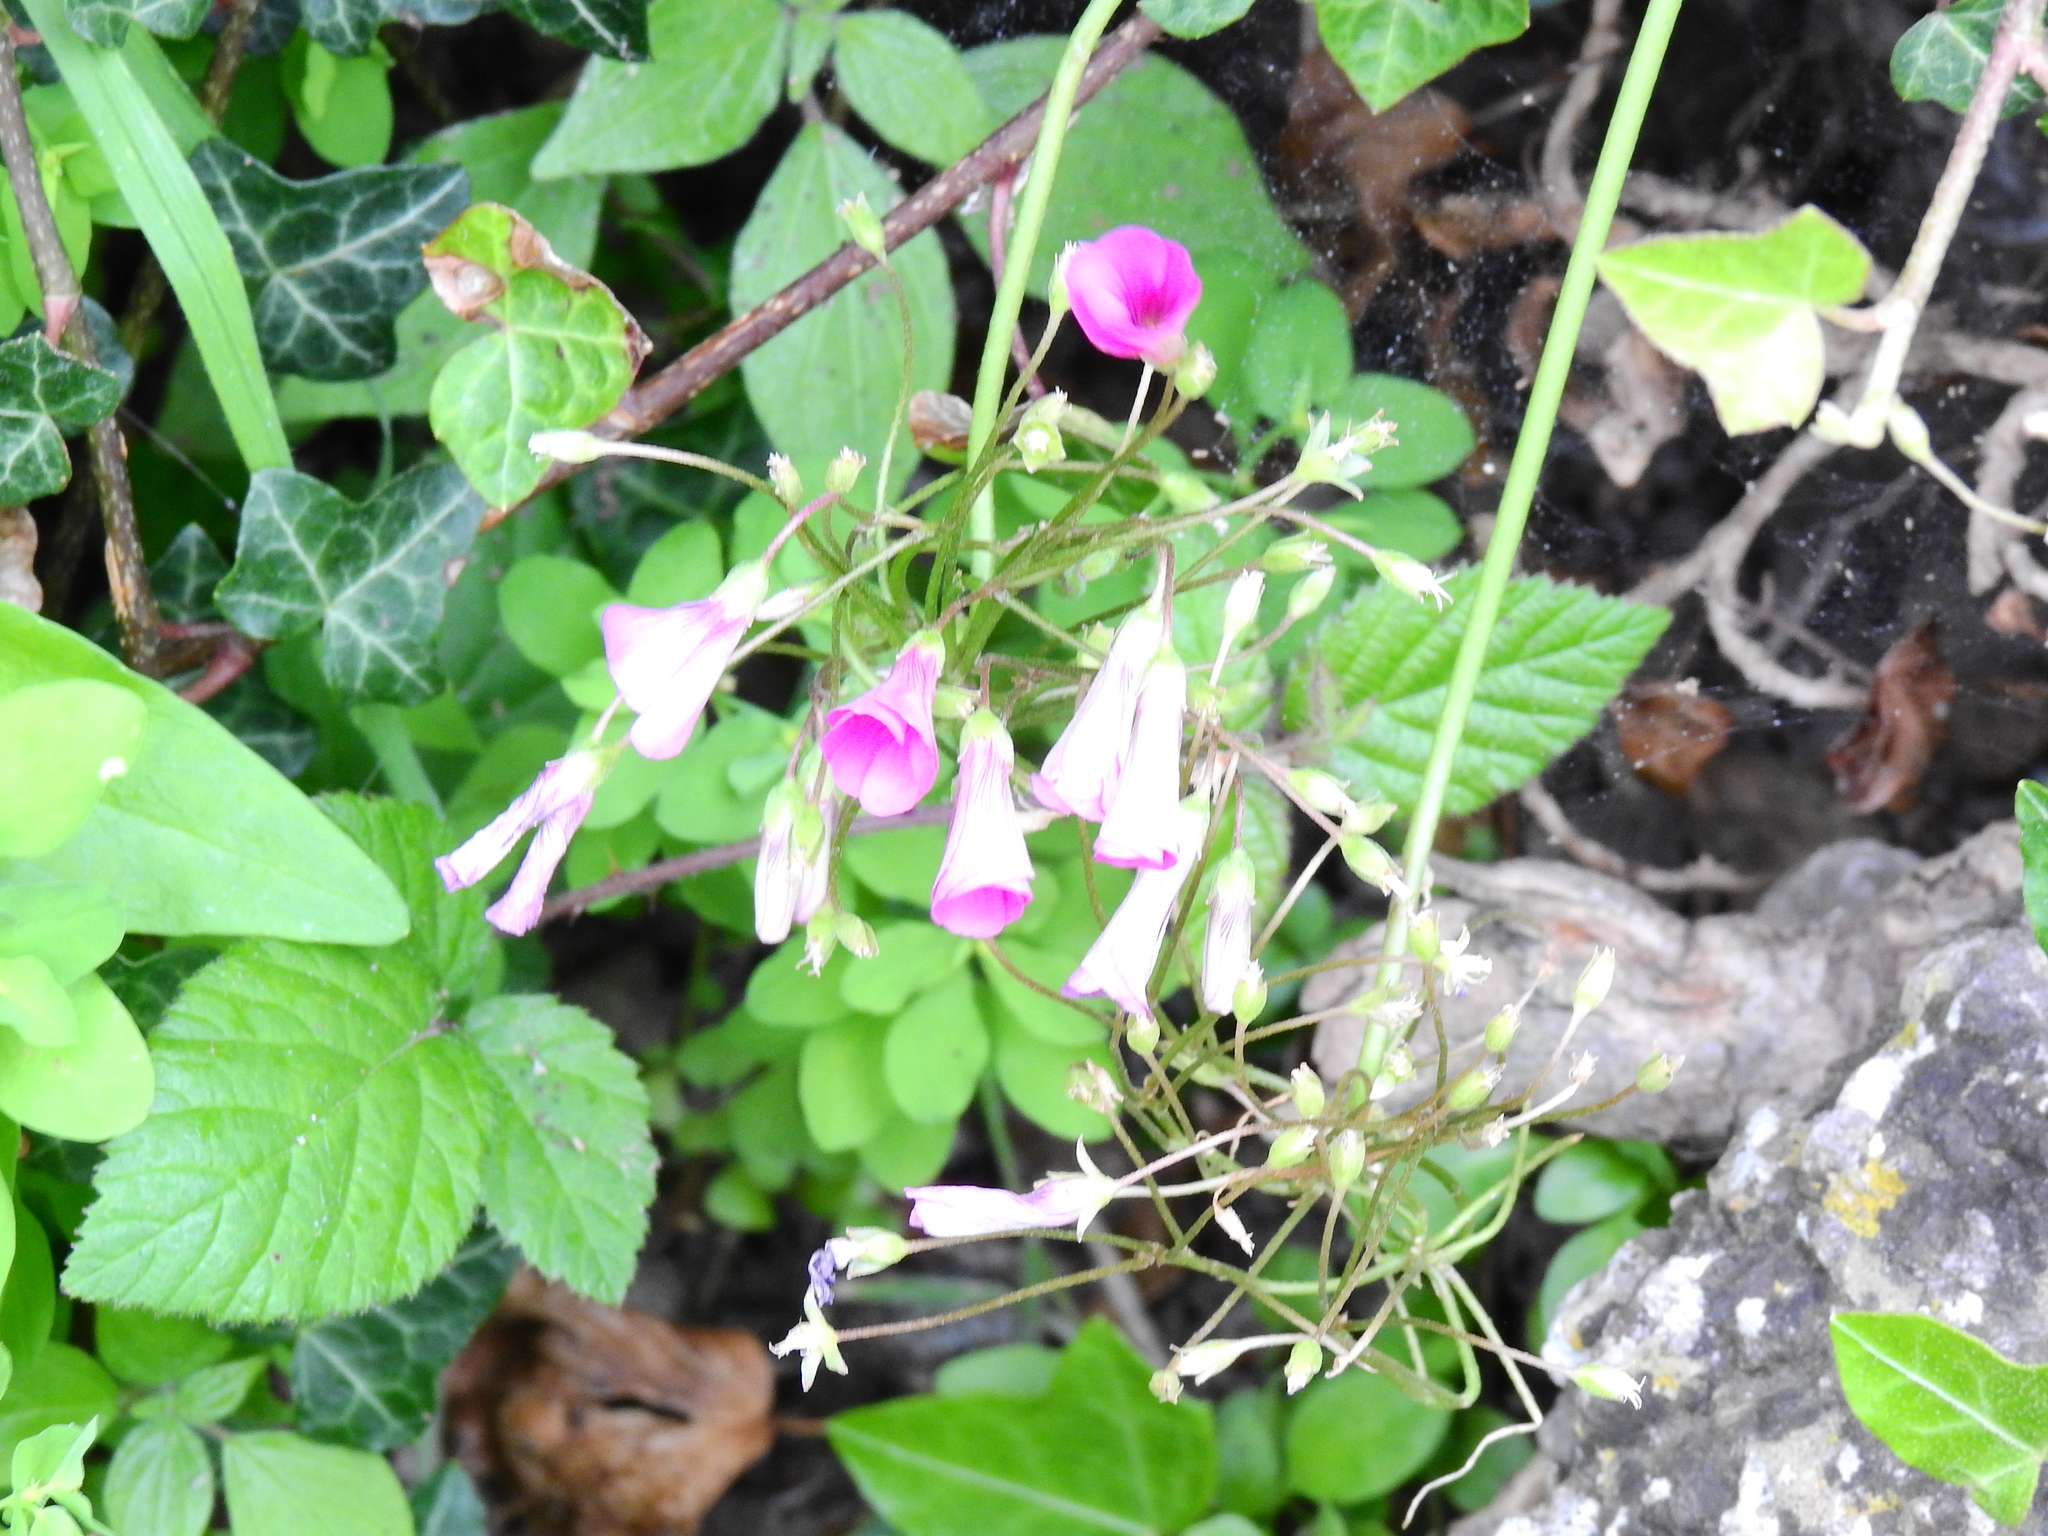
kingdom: Plantae
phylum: Tracheophyta
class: Magnoliopsida
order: Oxalidales
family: Oxalidaceae
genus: Oxalis
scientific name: Oxalis articulata
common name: Pink-sorrel
